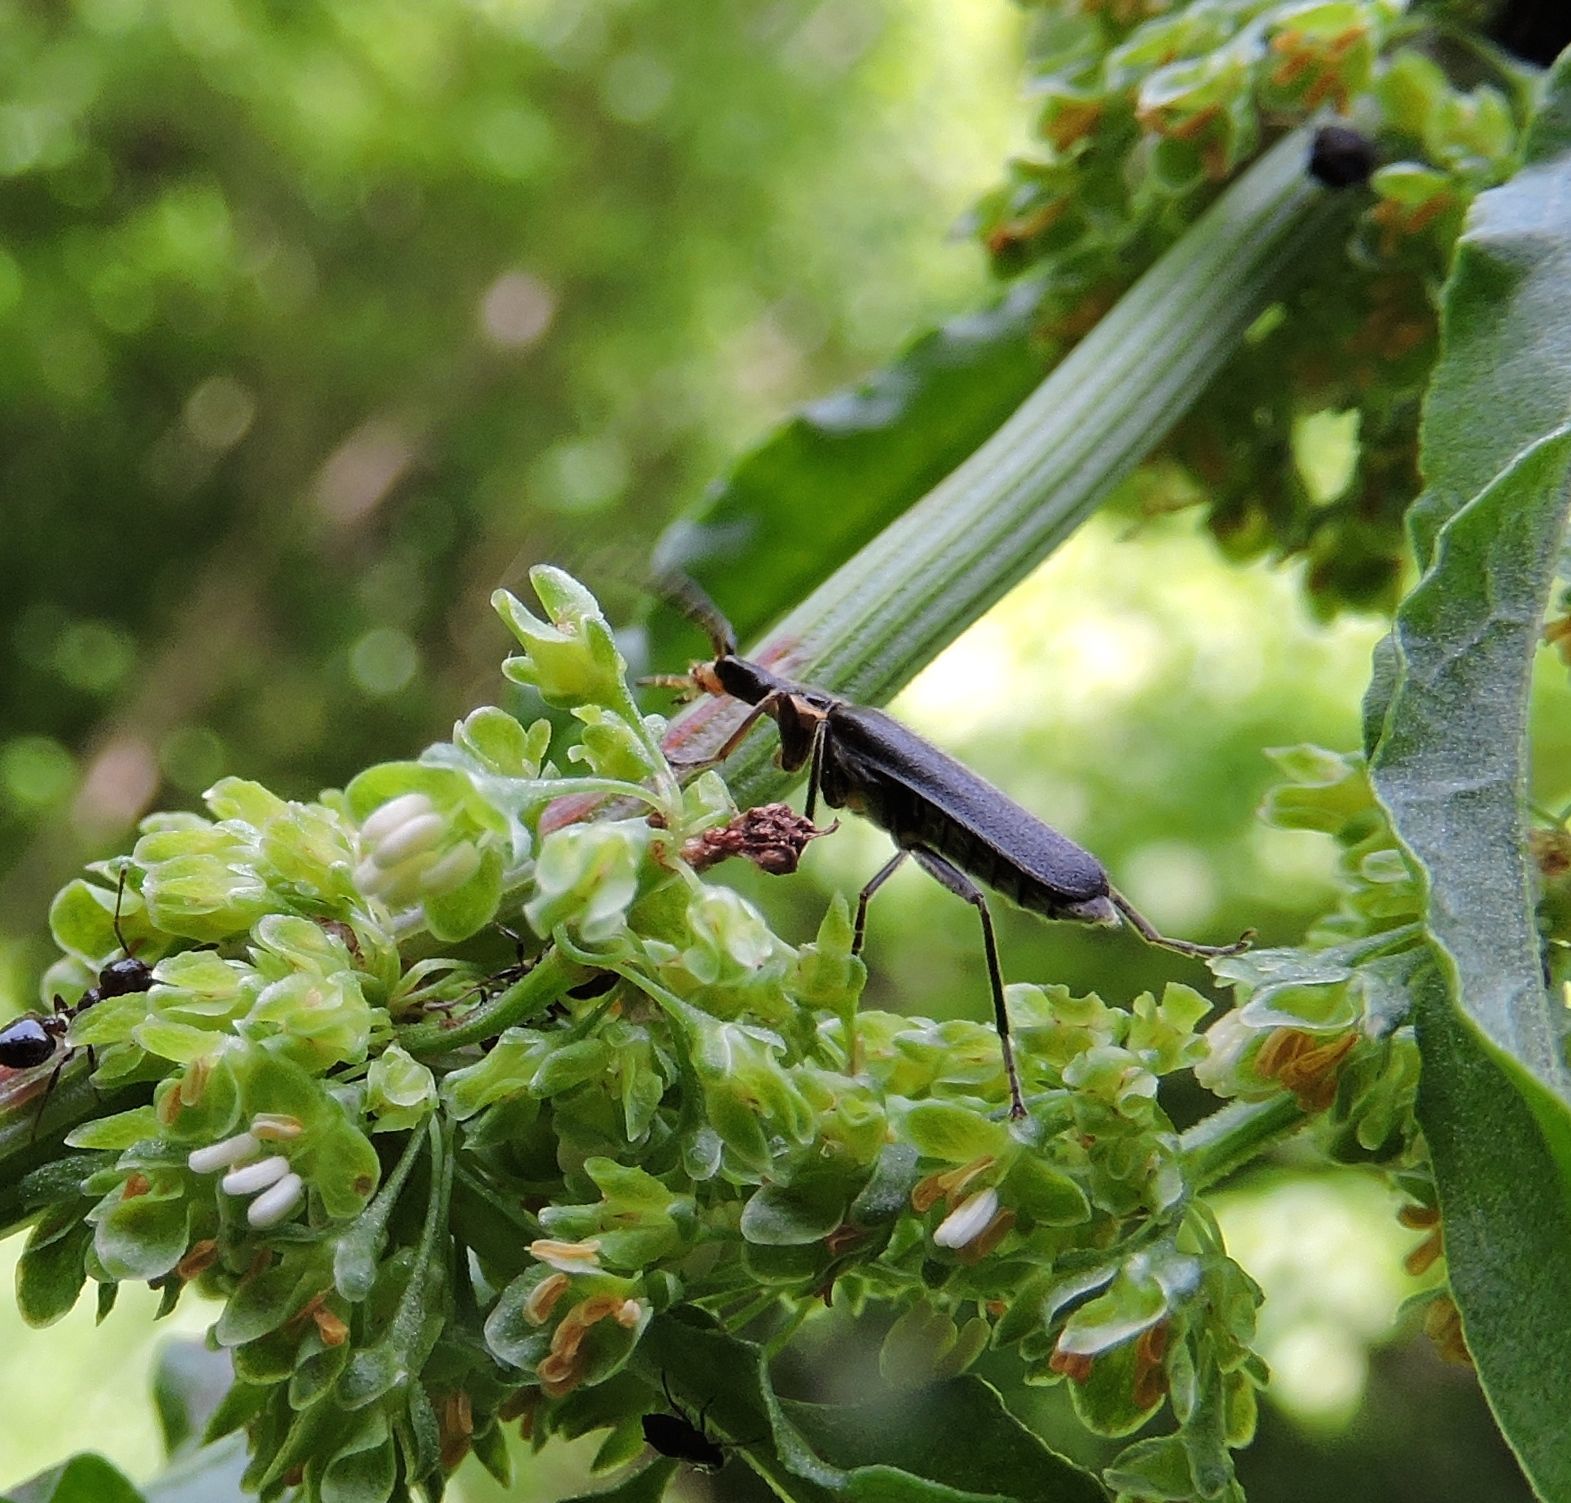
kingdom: Animalia
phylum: Arthropoda
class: Insecta
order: Coleoptera
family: Cantharidae
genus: Podabrus
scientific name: Podabrus rugosulus
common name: Wrinkled soldier beetle
